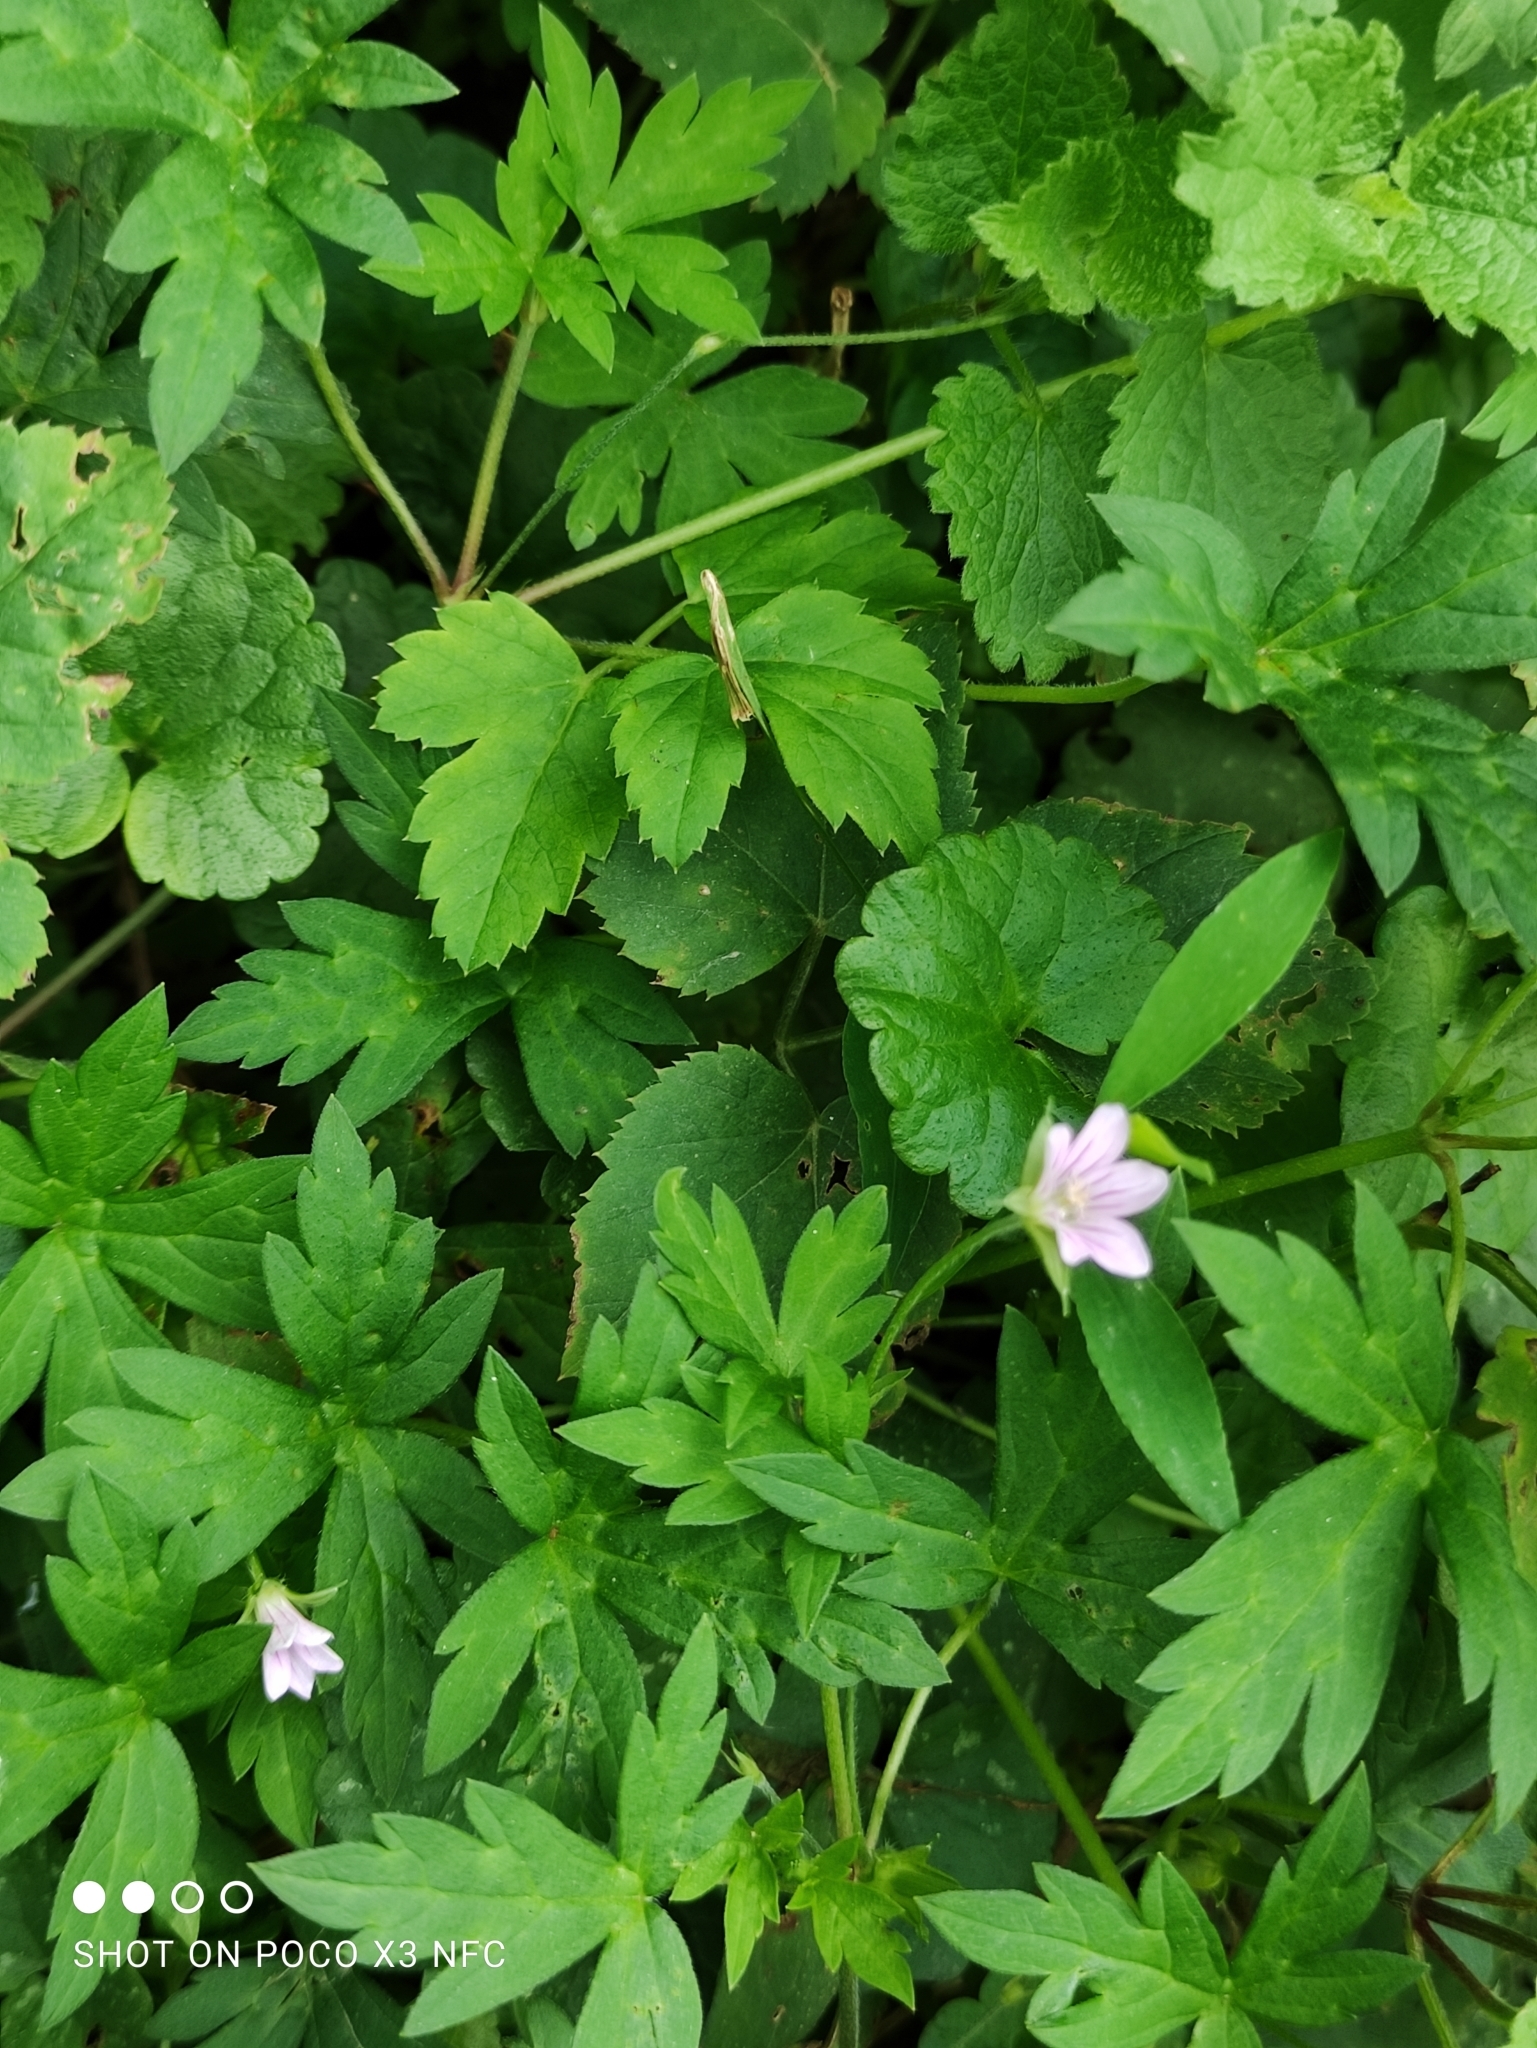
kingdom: Plantae
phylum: Tracheophyta
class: Magnoliopsida
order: Geraniales
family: Geraniaceae
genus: Geranium
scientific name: Geranium sibiricum
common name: Siberian crane's-bill
